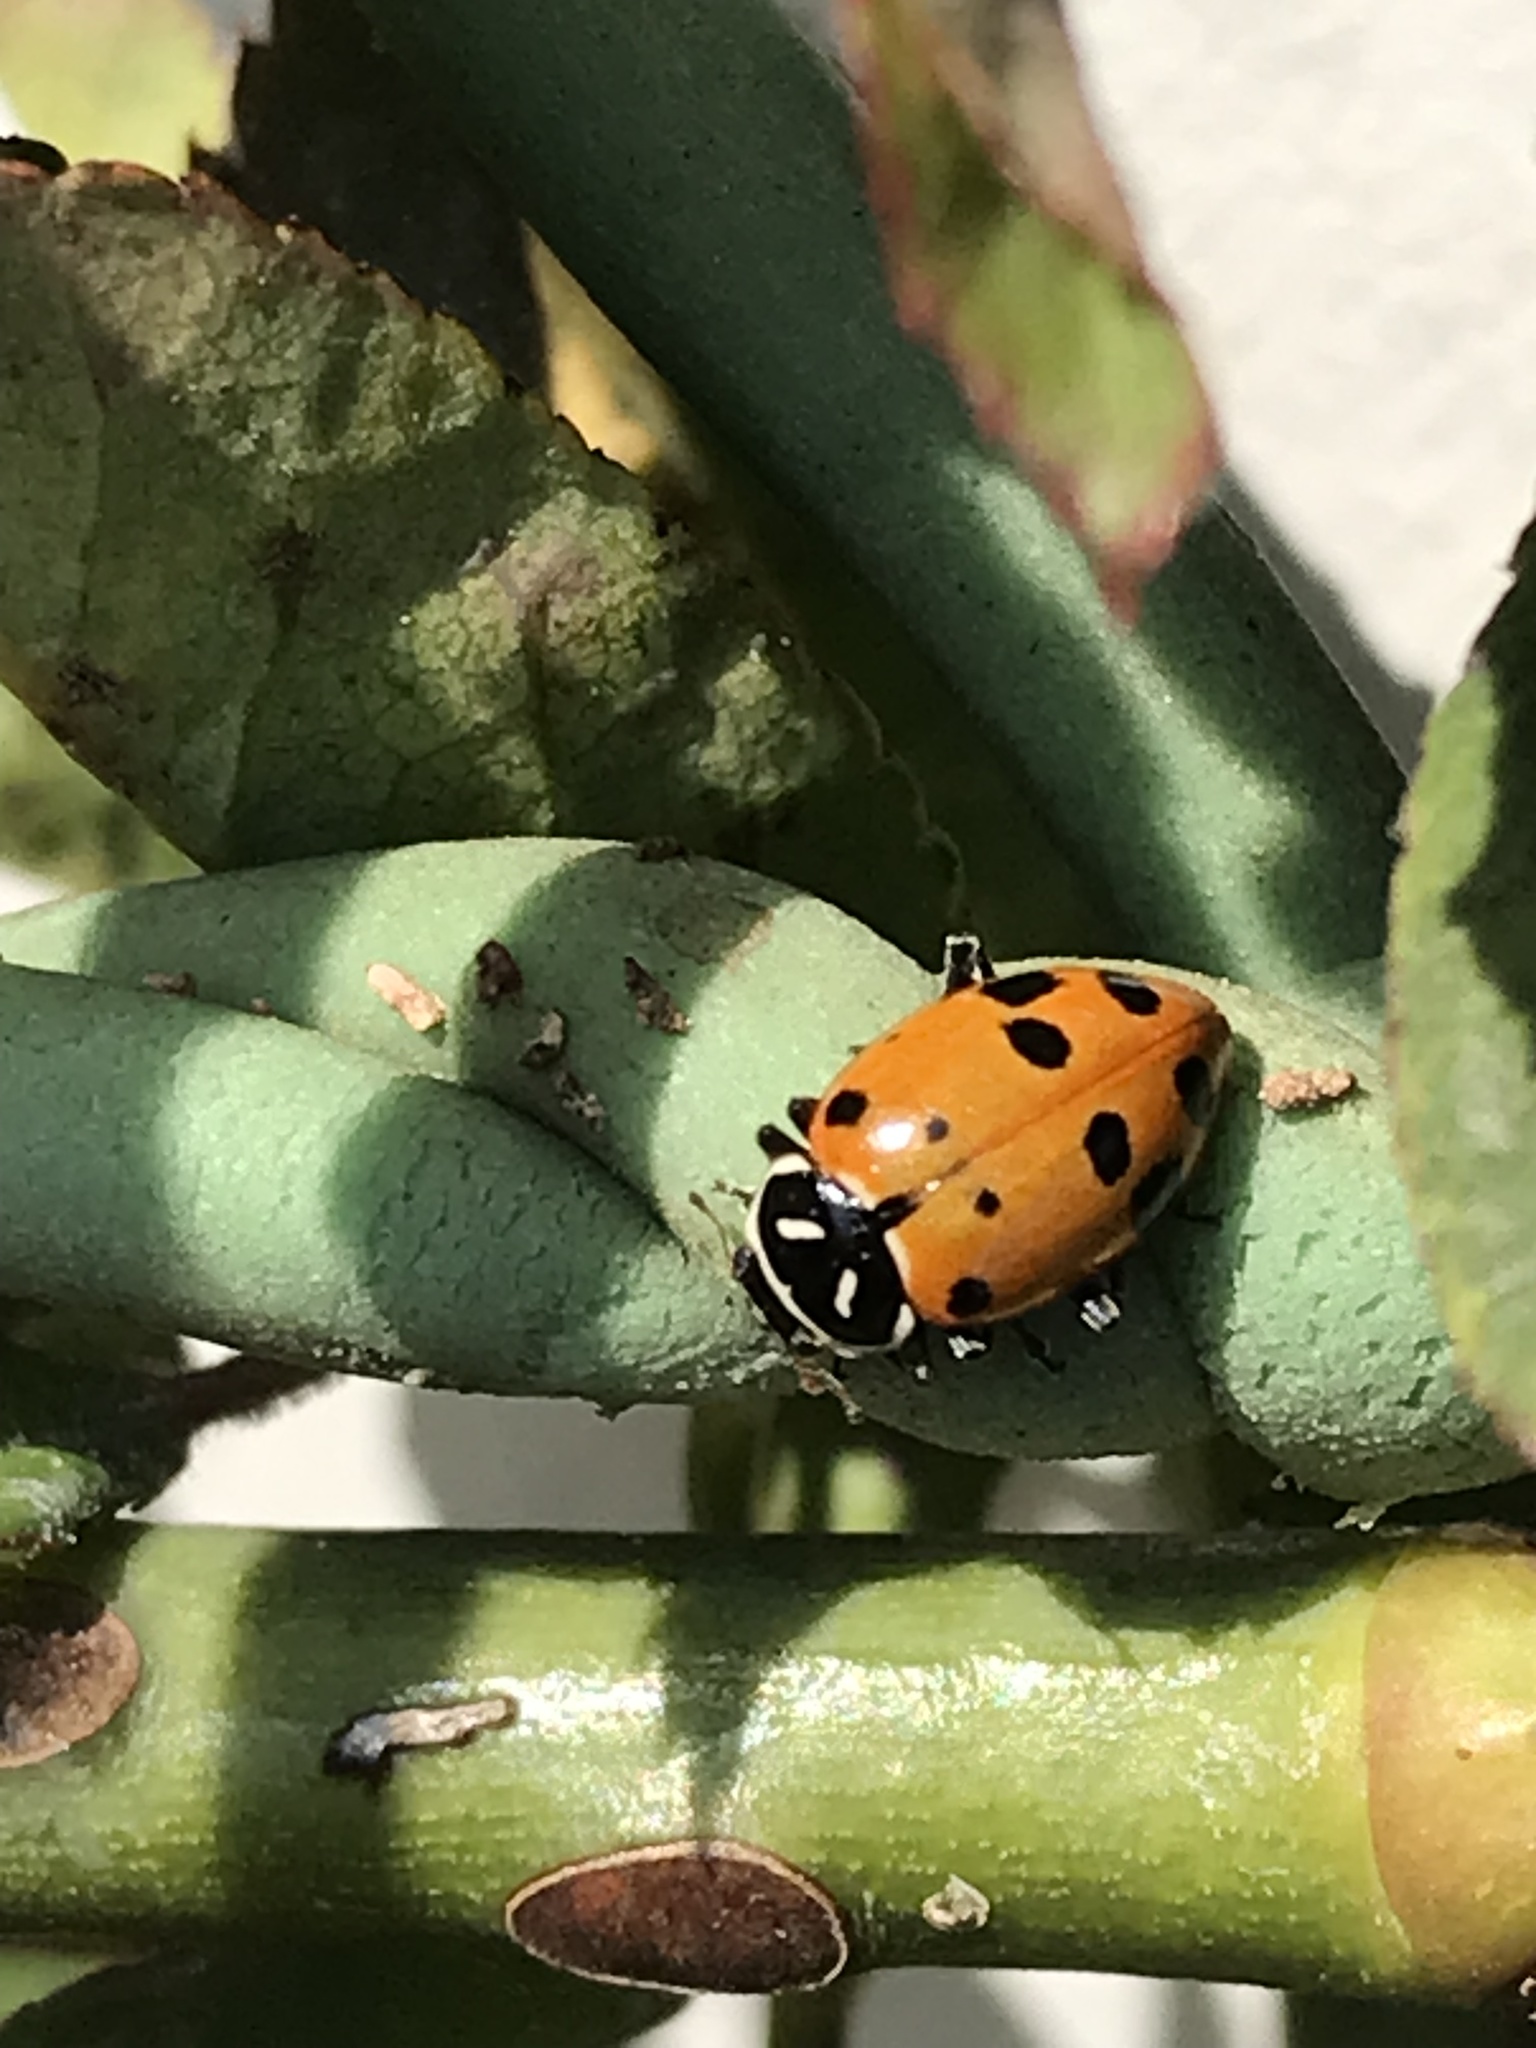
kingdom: Animalia
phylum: Arthropoda
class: Insecta
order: Coleoptera
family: Coccinellidae
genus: Hippodamia
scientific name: Hippodamia convergens
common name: Convergent lady beetle
